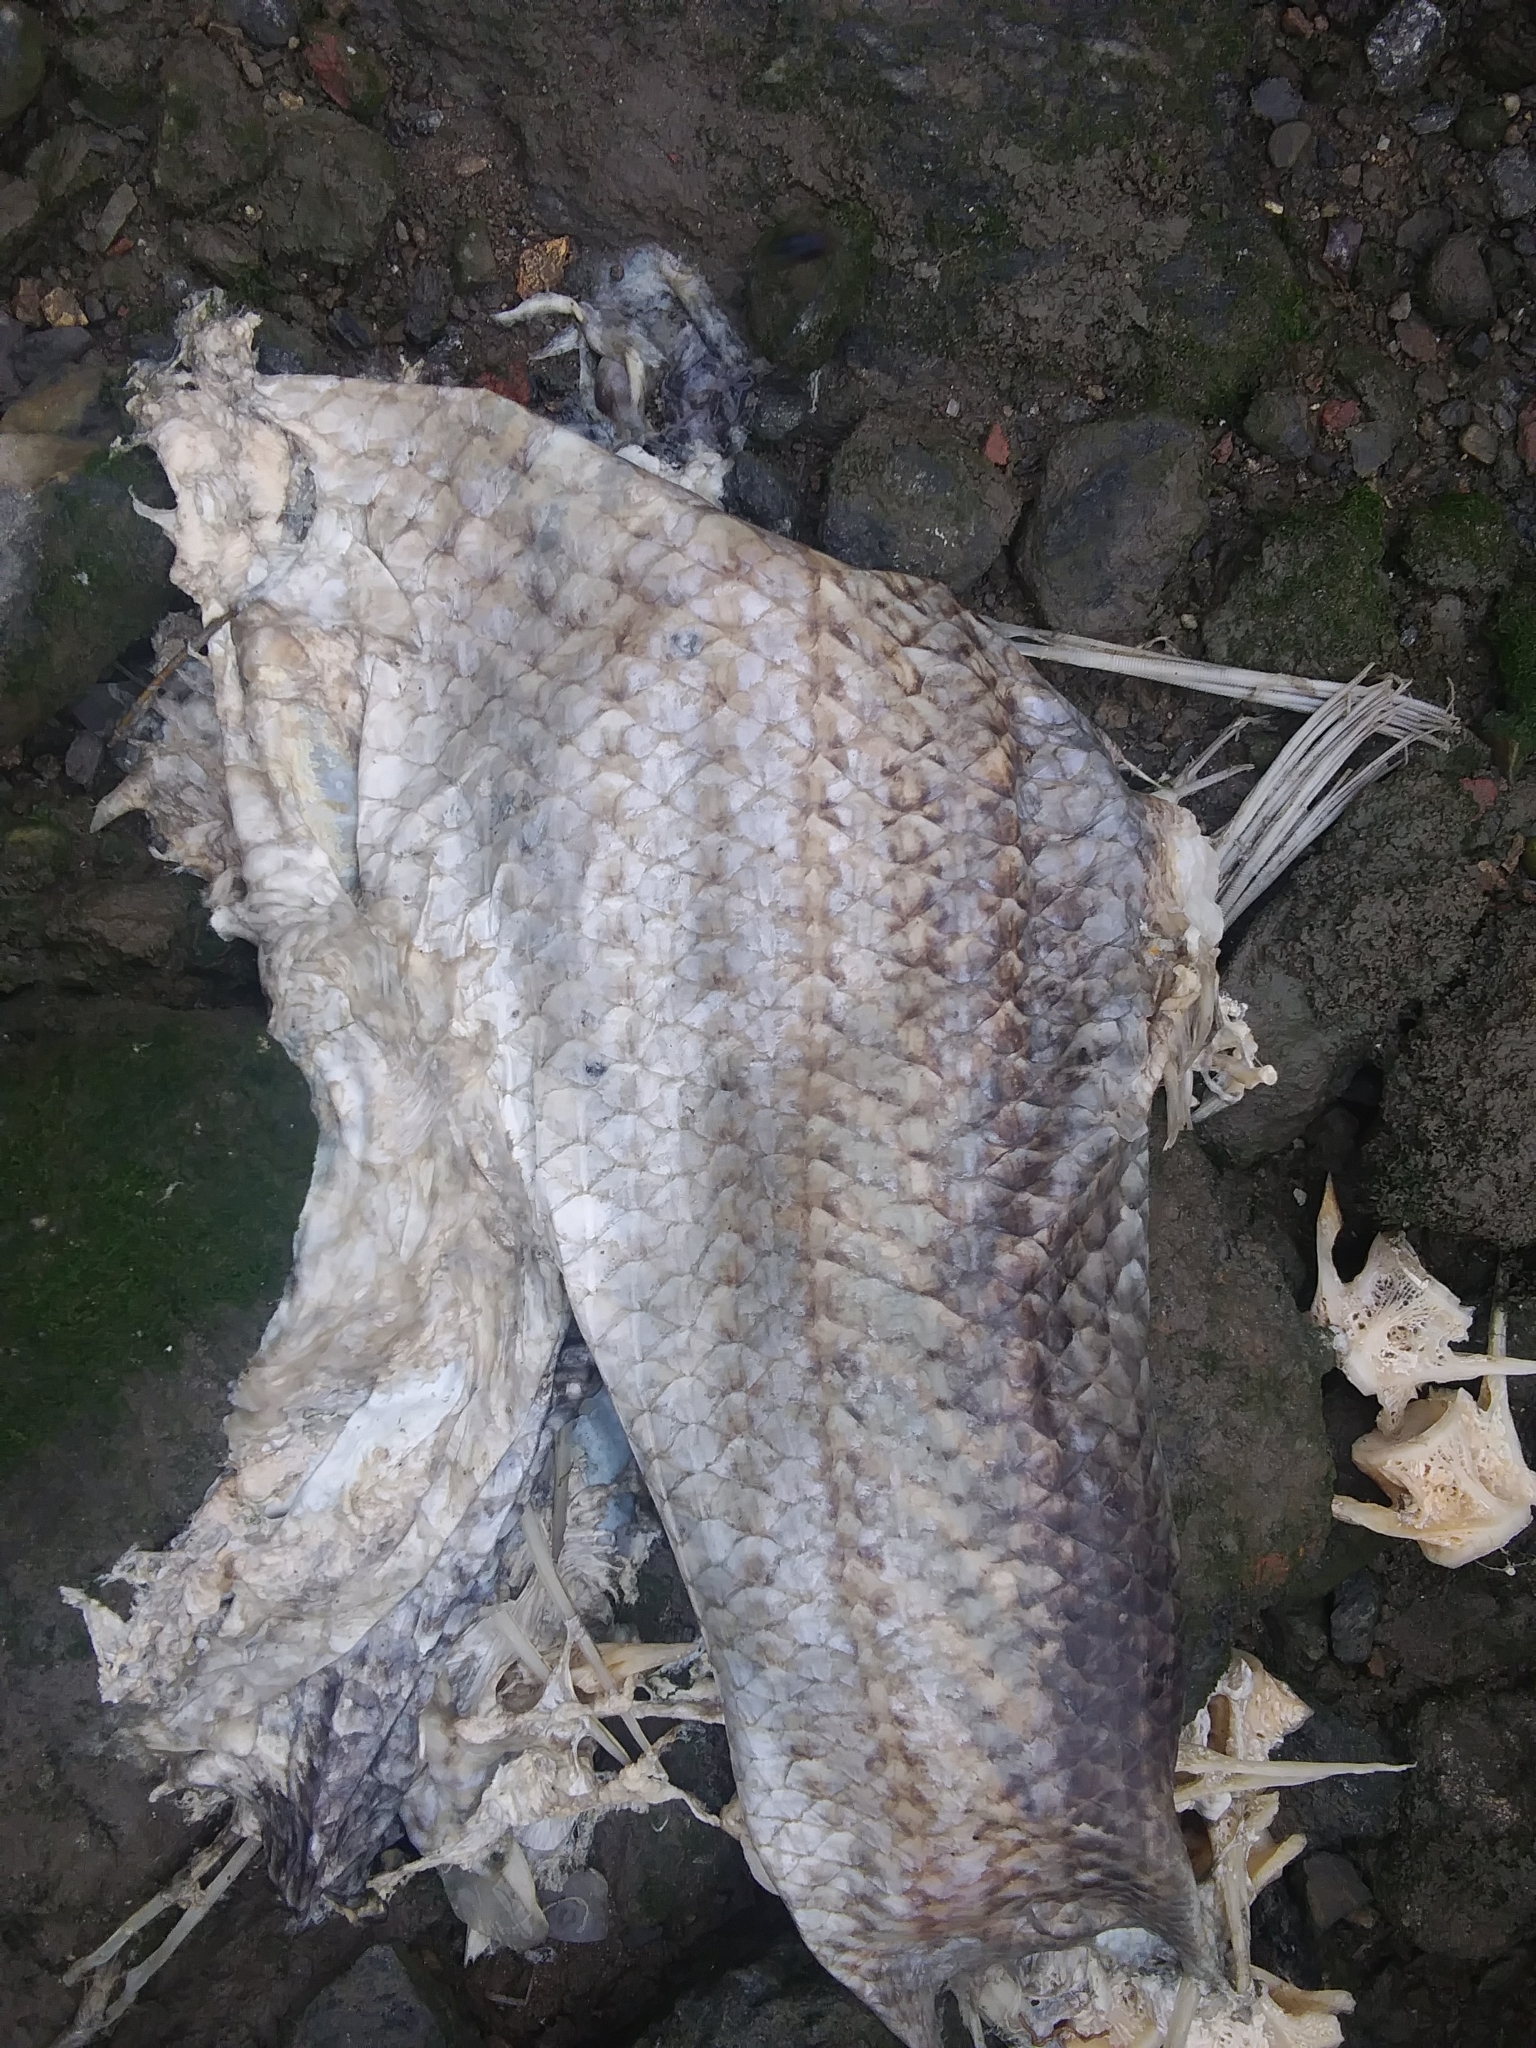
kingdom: Animalia
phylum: Chordata
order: Perciformes
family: Moronidae
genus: Morone
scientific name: Morone saxatilis
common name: Striped bass
